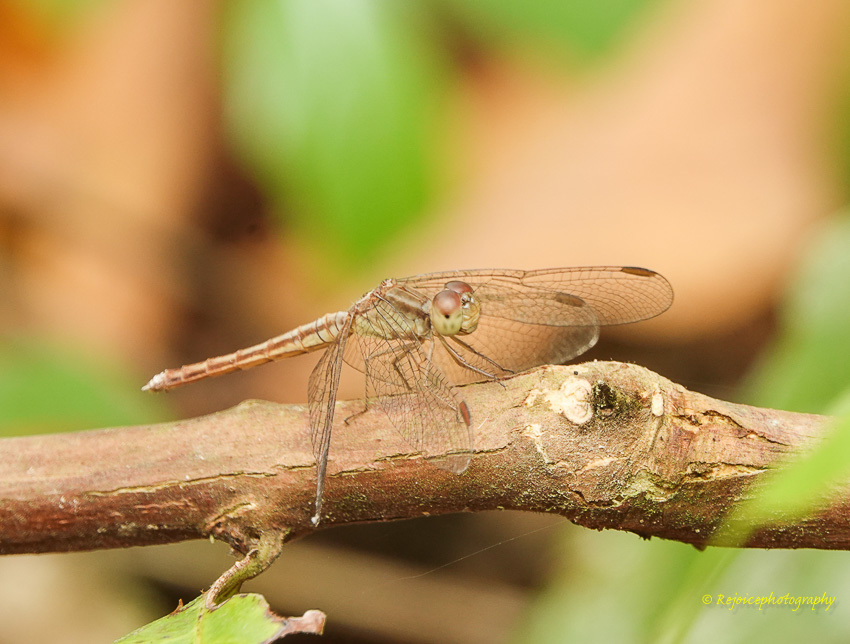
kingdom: Animalia
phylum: Arthropoda
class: Insecta
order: Odonata
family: Libellulidae
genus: Neurothemis
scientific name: Neurothemis intermedia
